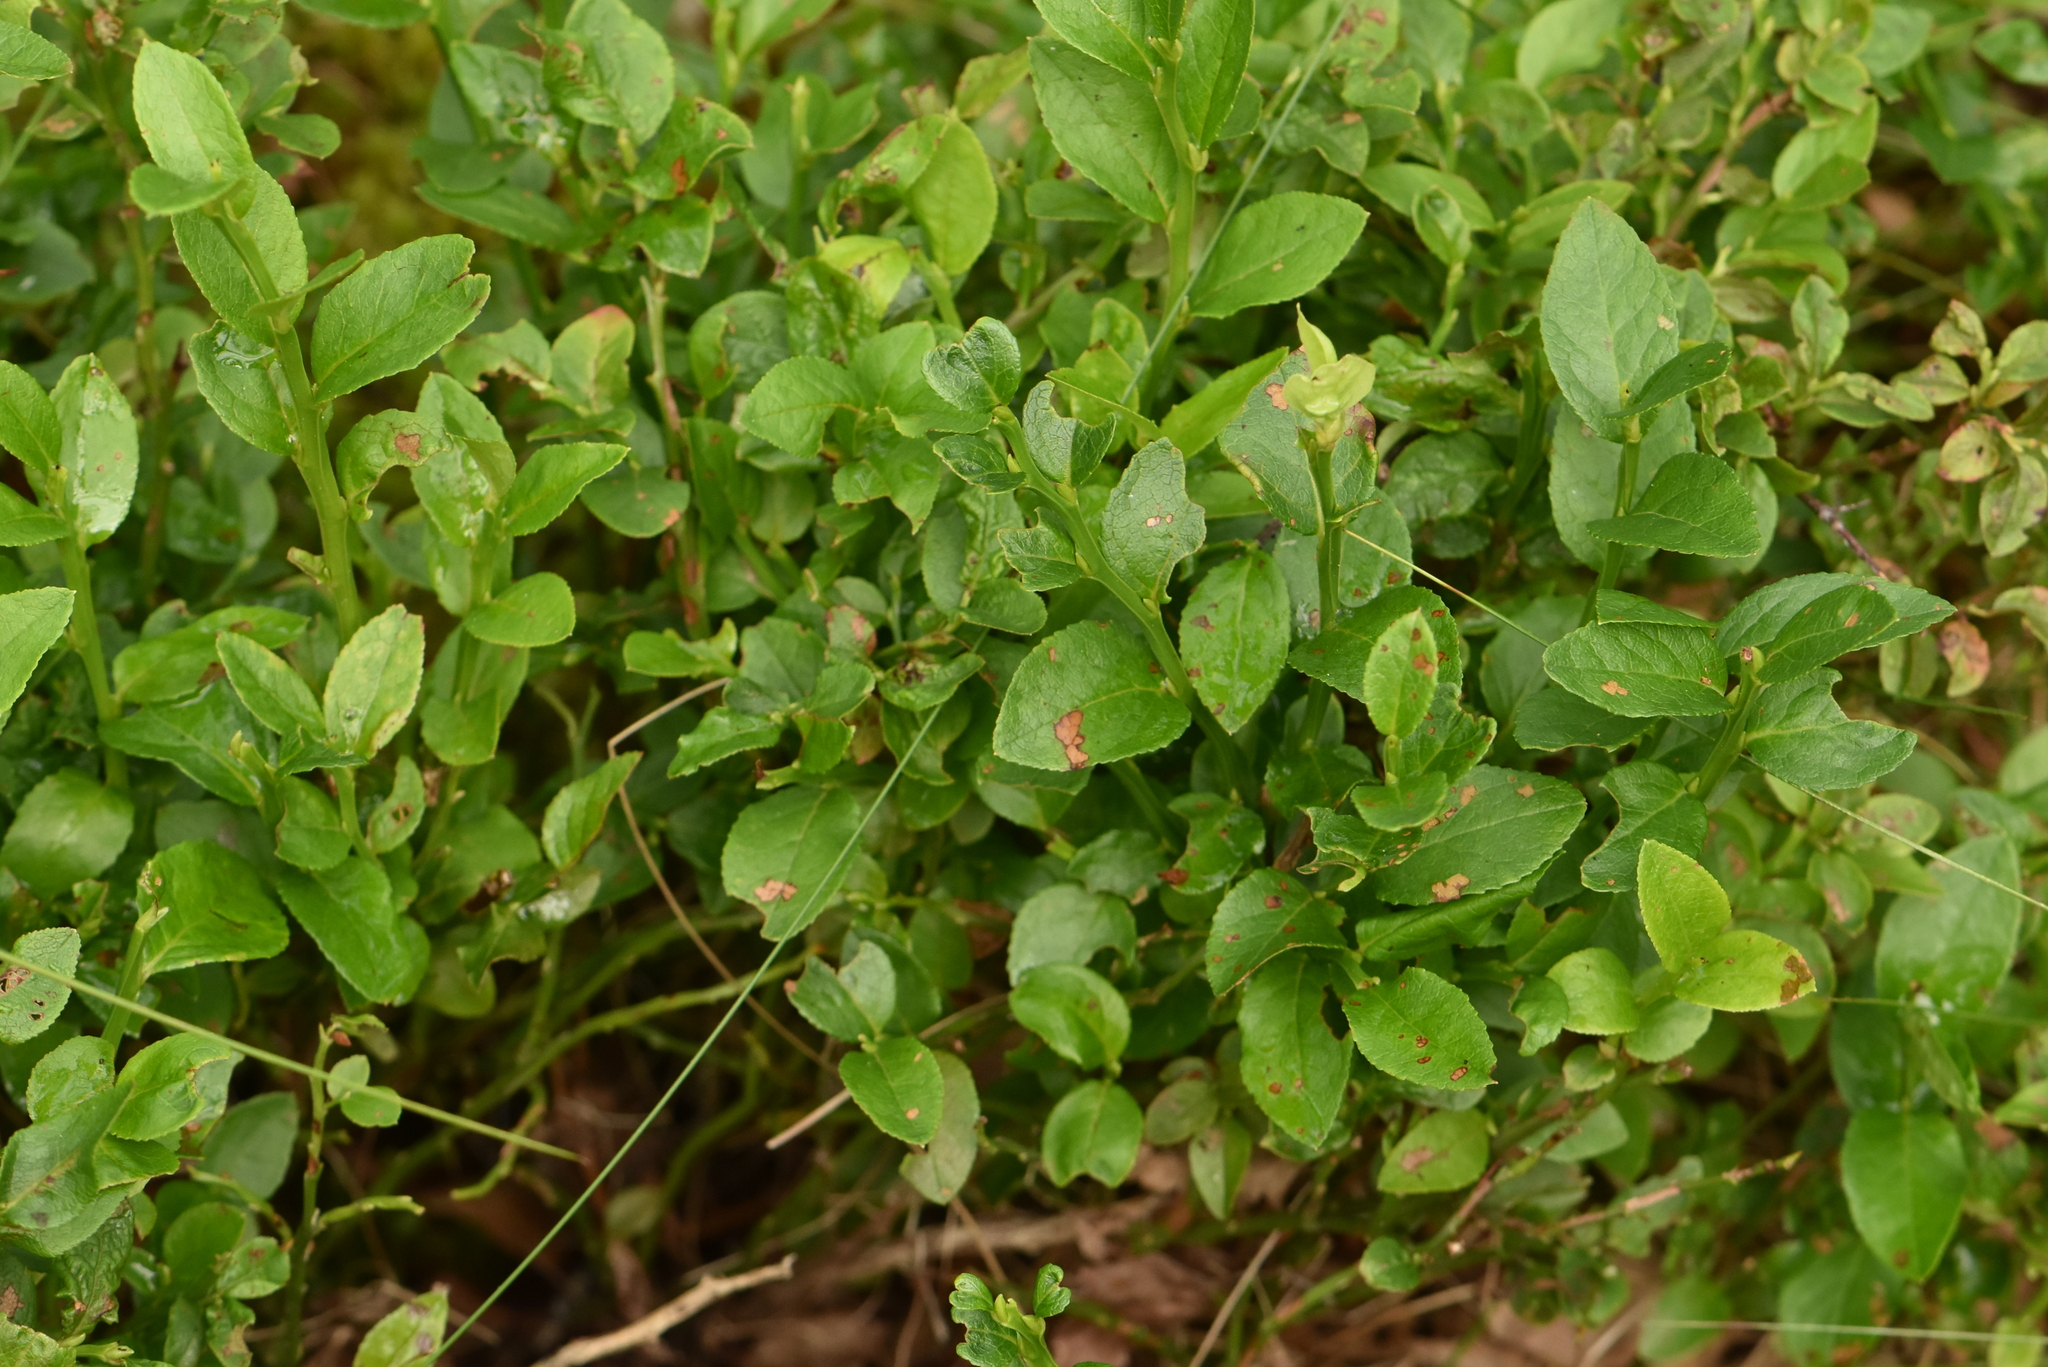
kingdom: Plantae
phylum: Tracheophyta
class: Magnoliopsida
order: Ericales
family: Ericaceae
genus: Vaccinium
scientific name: Vaccinium myrtillus
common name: Bilberry
